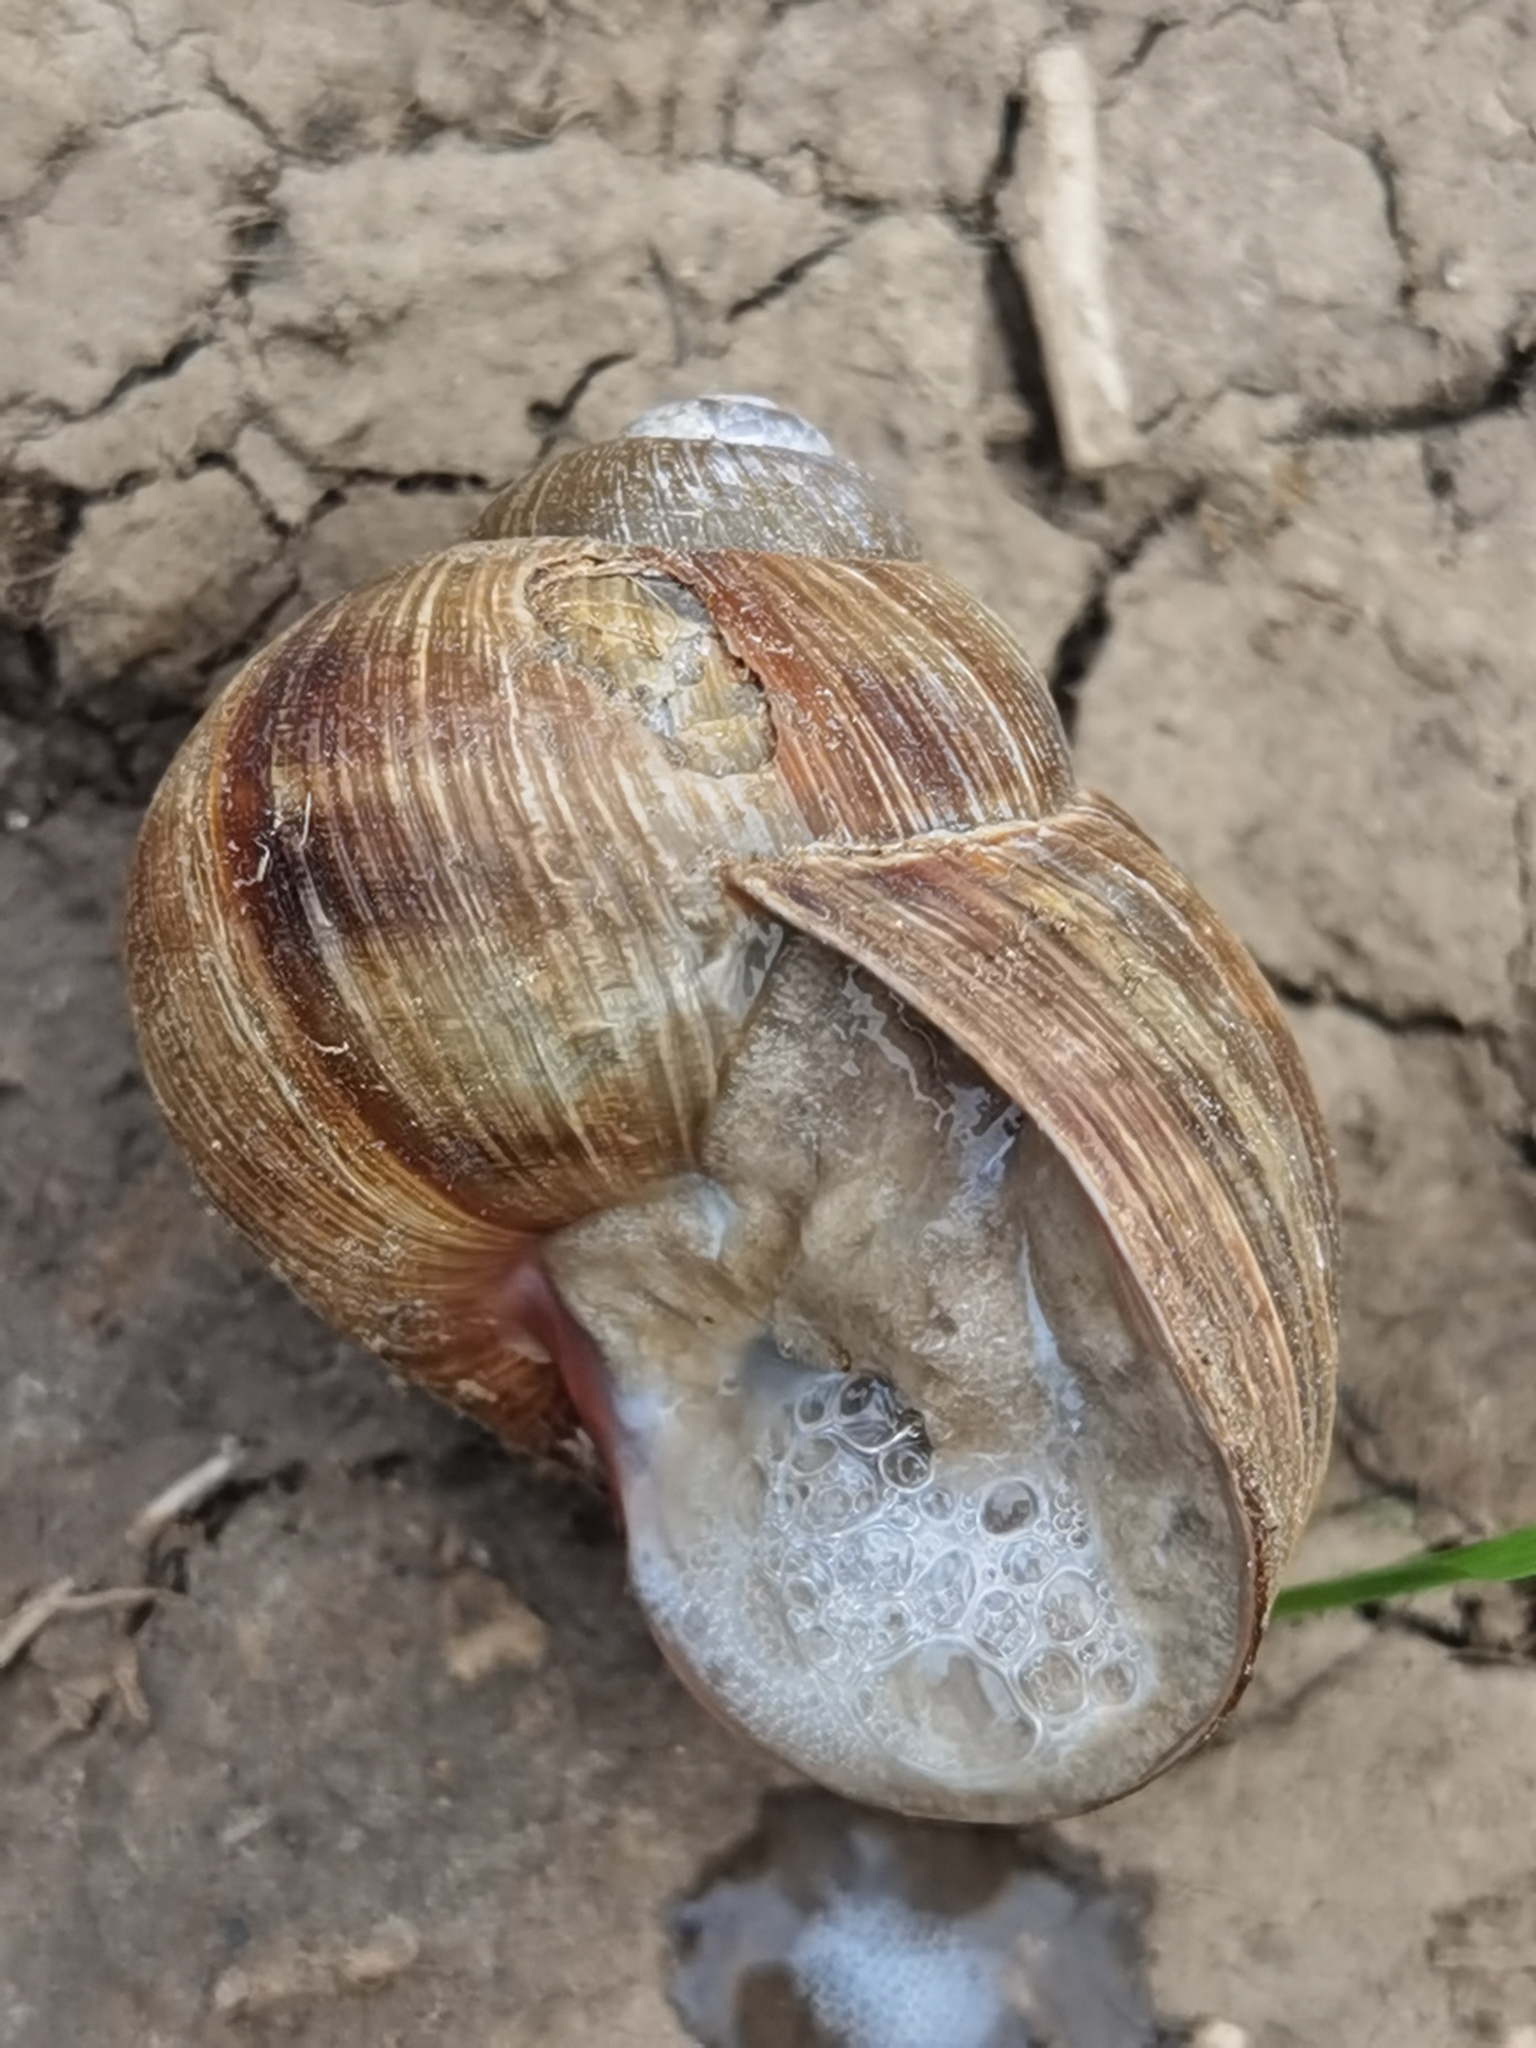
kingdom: Animalia
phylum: Mollusca
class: Gastropoda
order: Stylommatophora
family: Helicidae
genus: Helix
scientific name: Helix pomatia
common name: Roman snail
